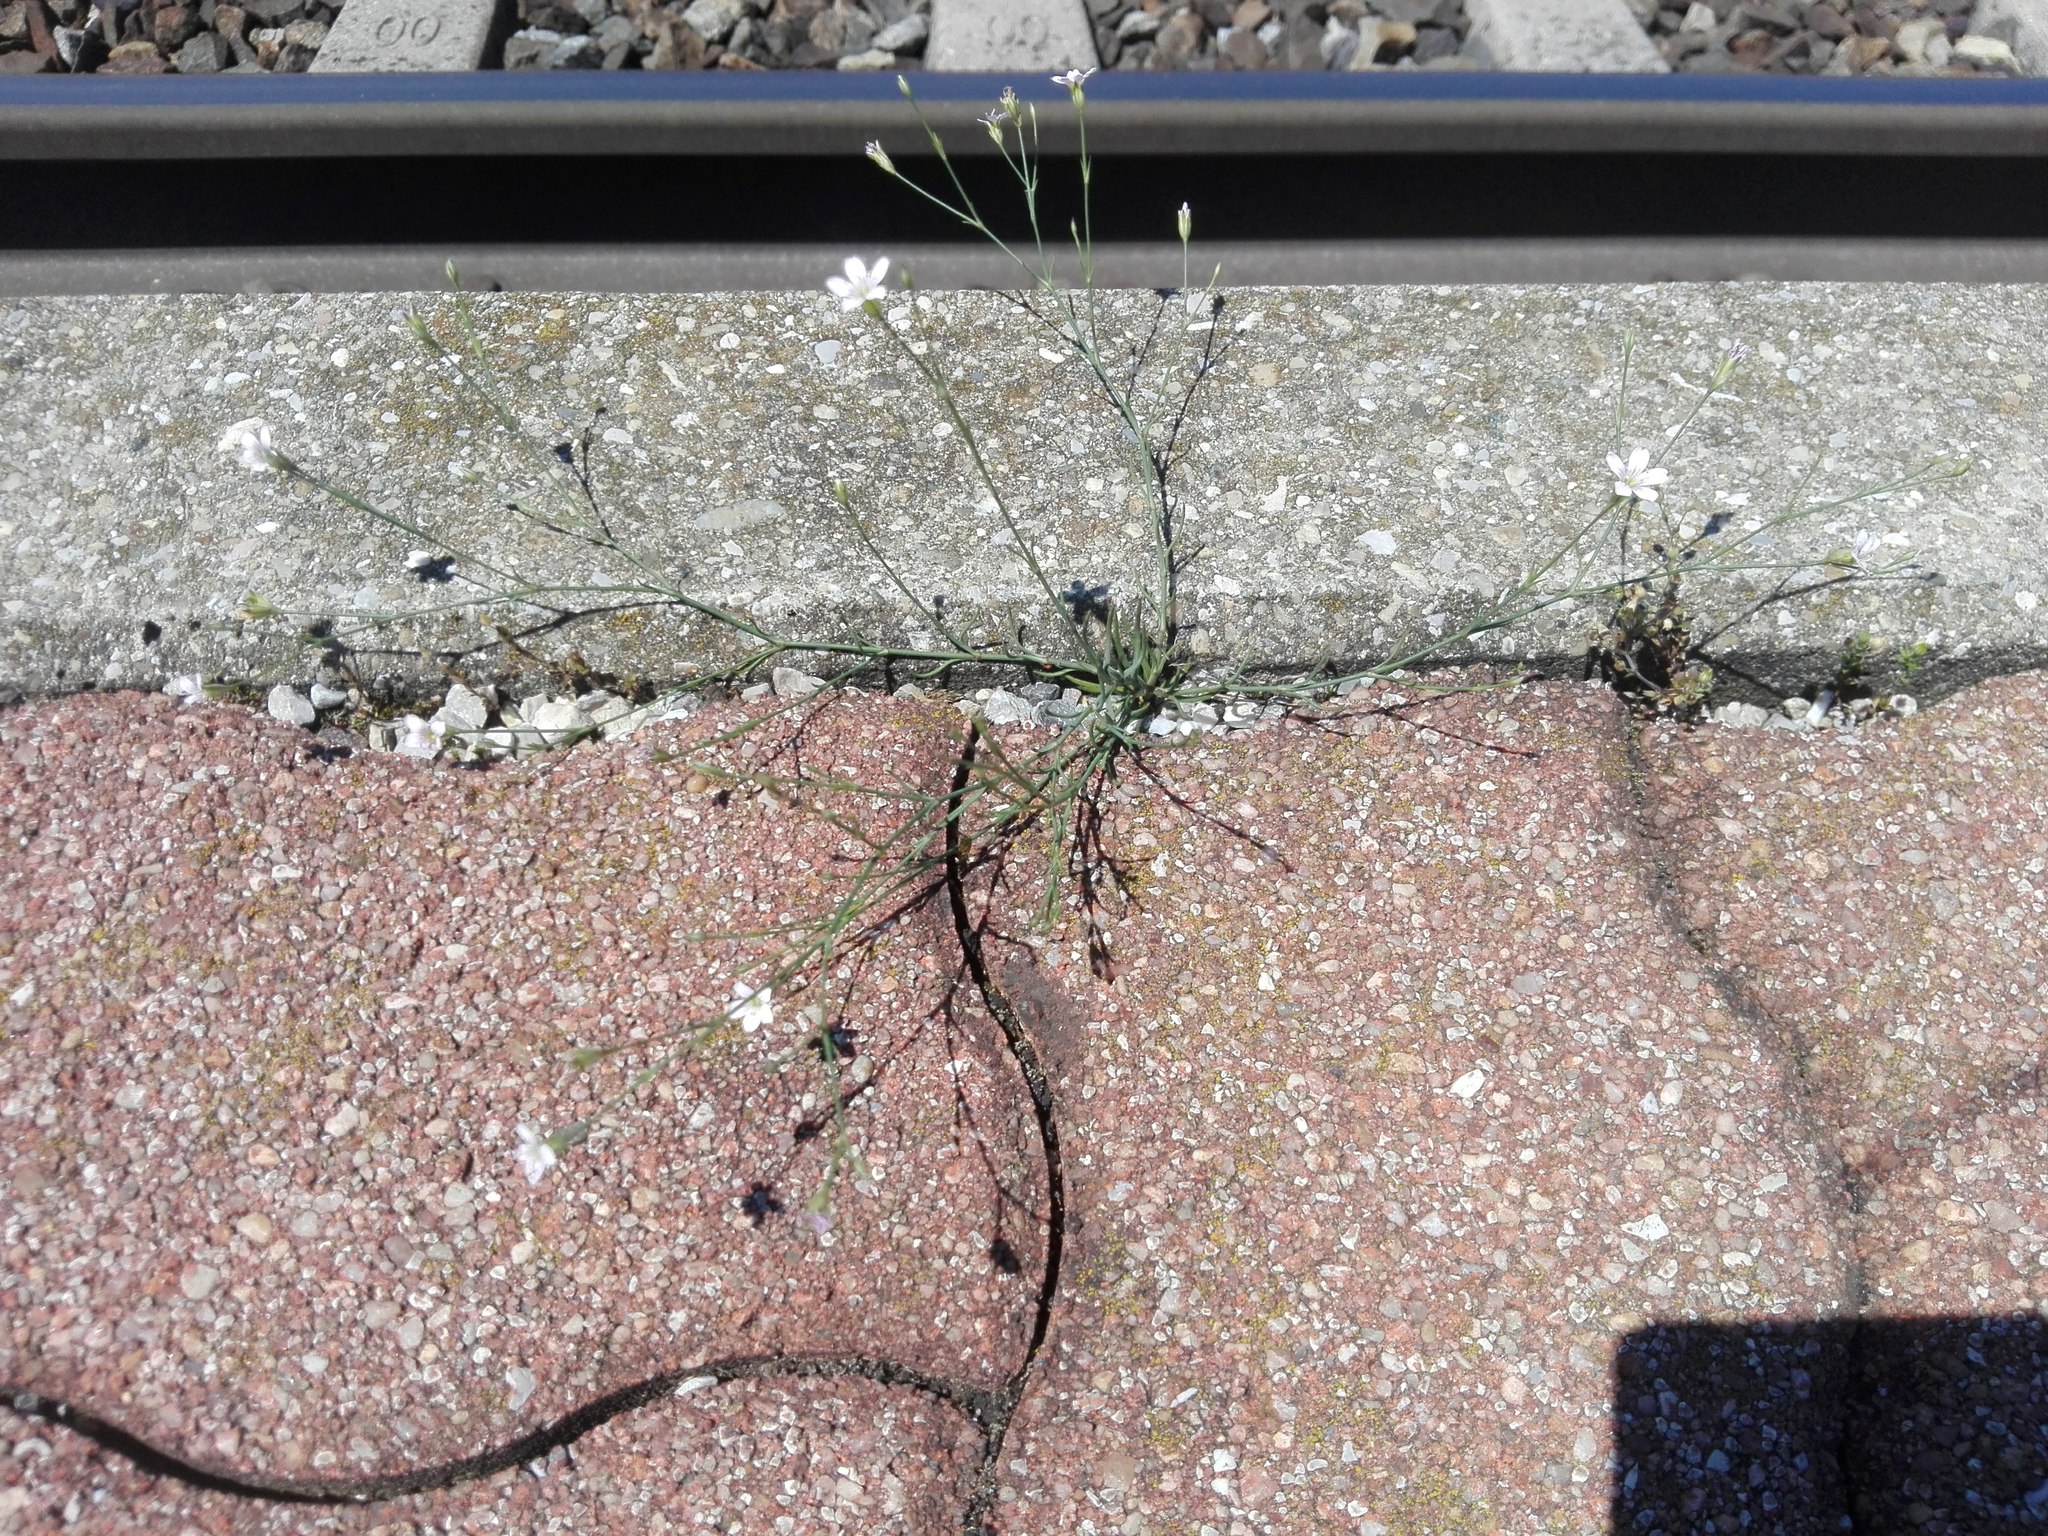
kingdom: Plantae
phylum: Tracheophyta
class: Magnoliopsida
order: Caryophyllales
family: Caryophyllaceae
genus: Petrorhagia
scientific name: Petrorhagia saxifraga
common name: Tunicflower
